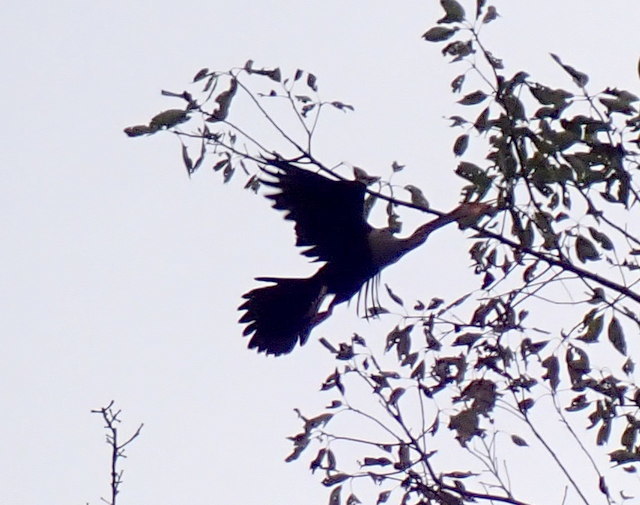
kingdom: Animalia
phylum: Chordata
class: Aves
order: Suliformes
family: Anhingidae
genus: Anhinga
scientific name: Anhinga anhinga
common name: Anhinga
